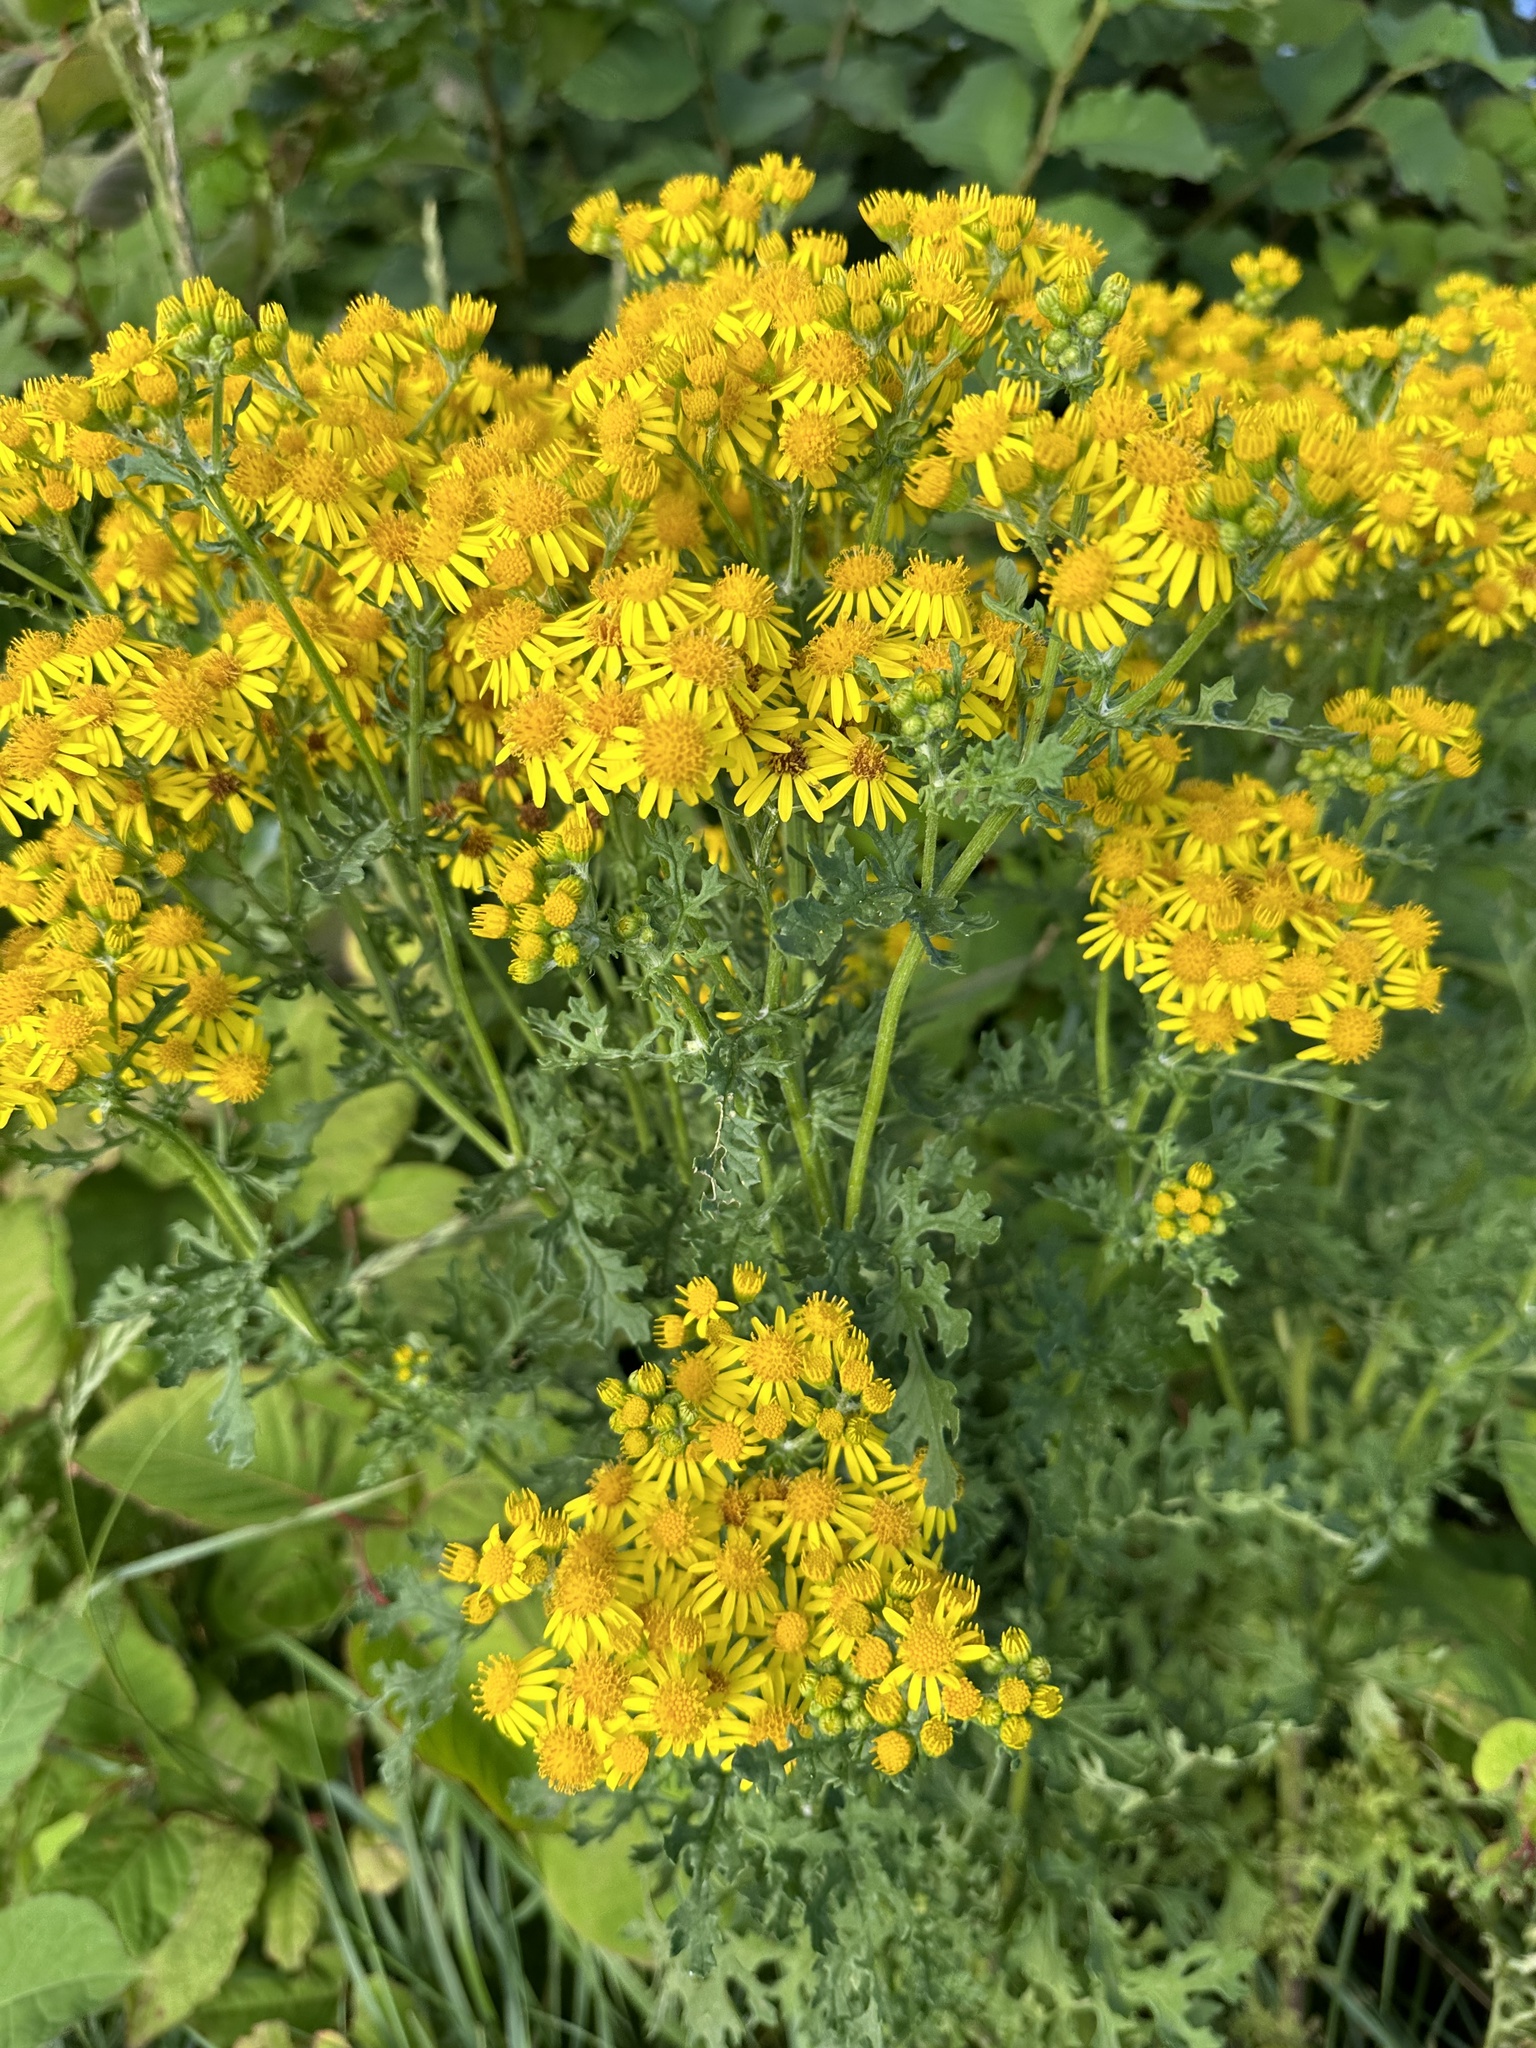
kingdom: Plantae
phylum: Tracheophyta
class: Magnoliopsida
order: Asterales
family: Asteraceae
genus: Jacobaea
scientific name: Jacobaea vulgaris
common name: Stinking willie
